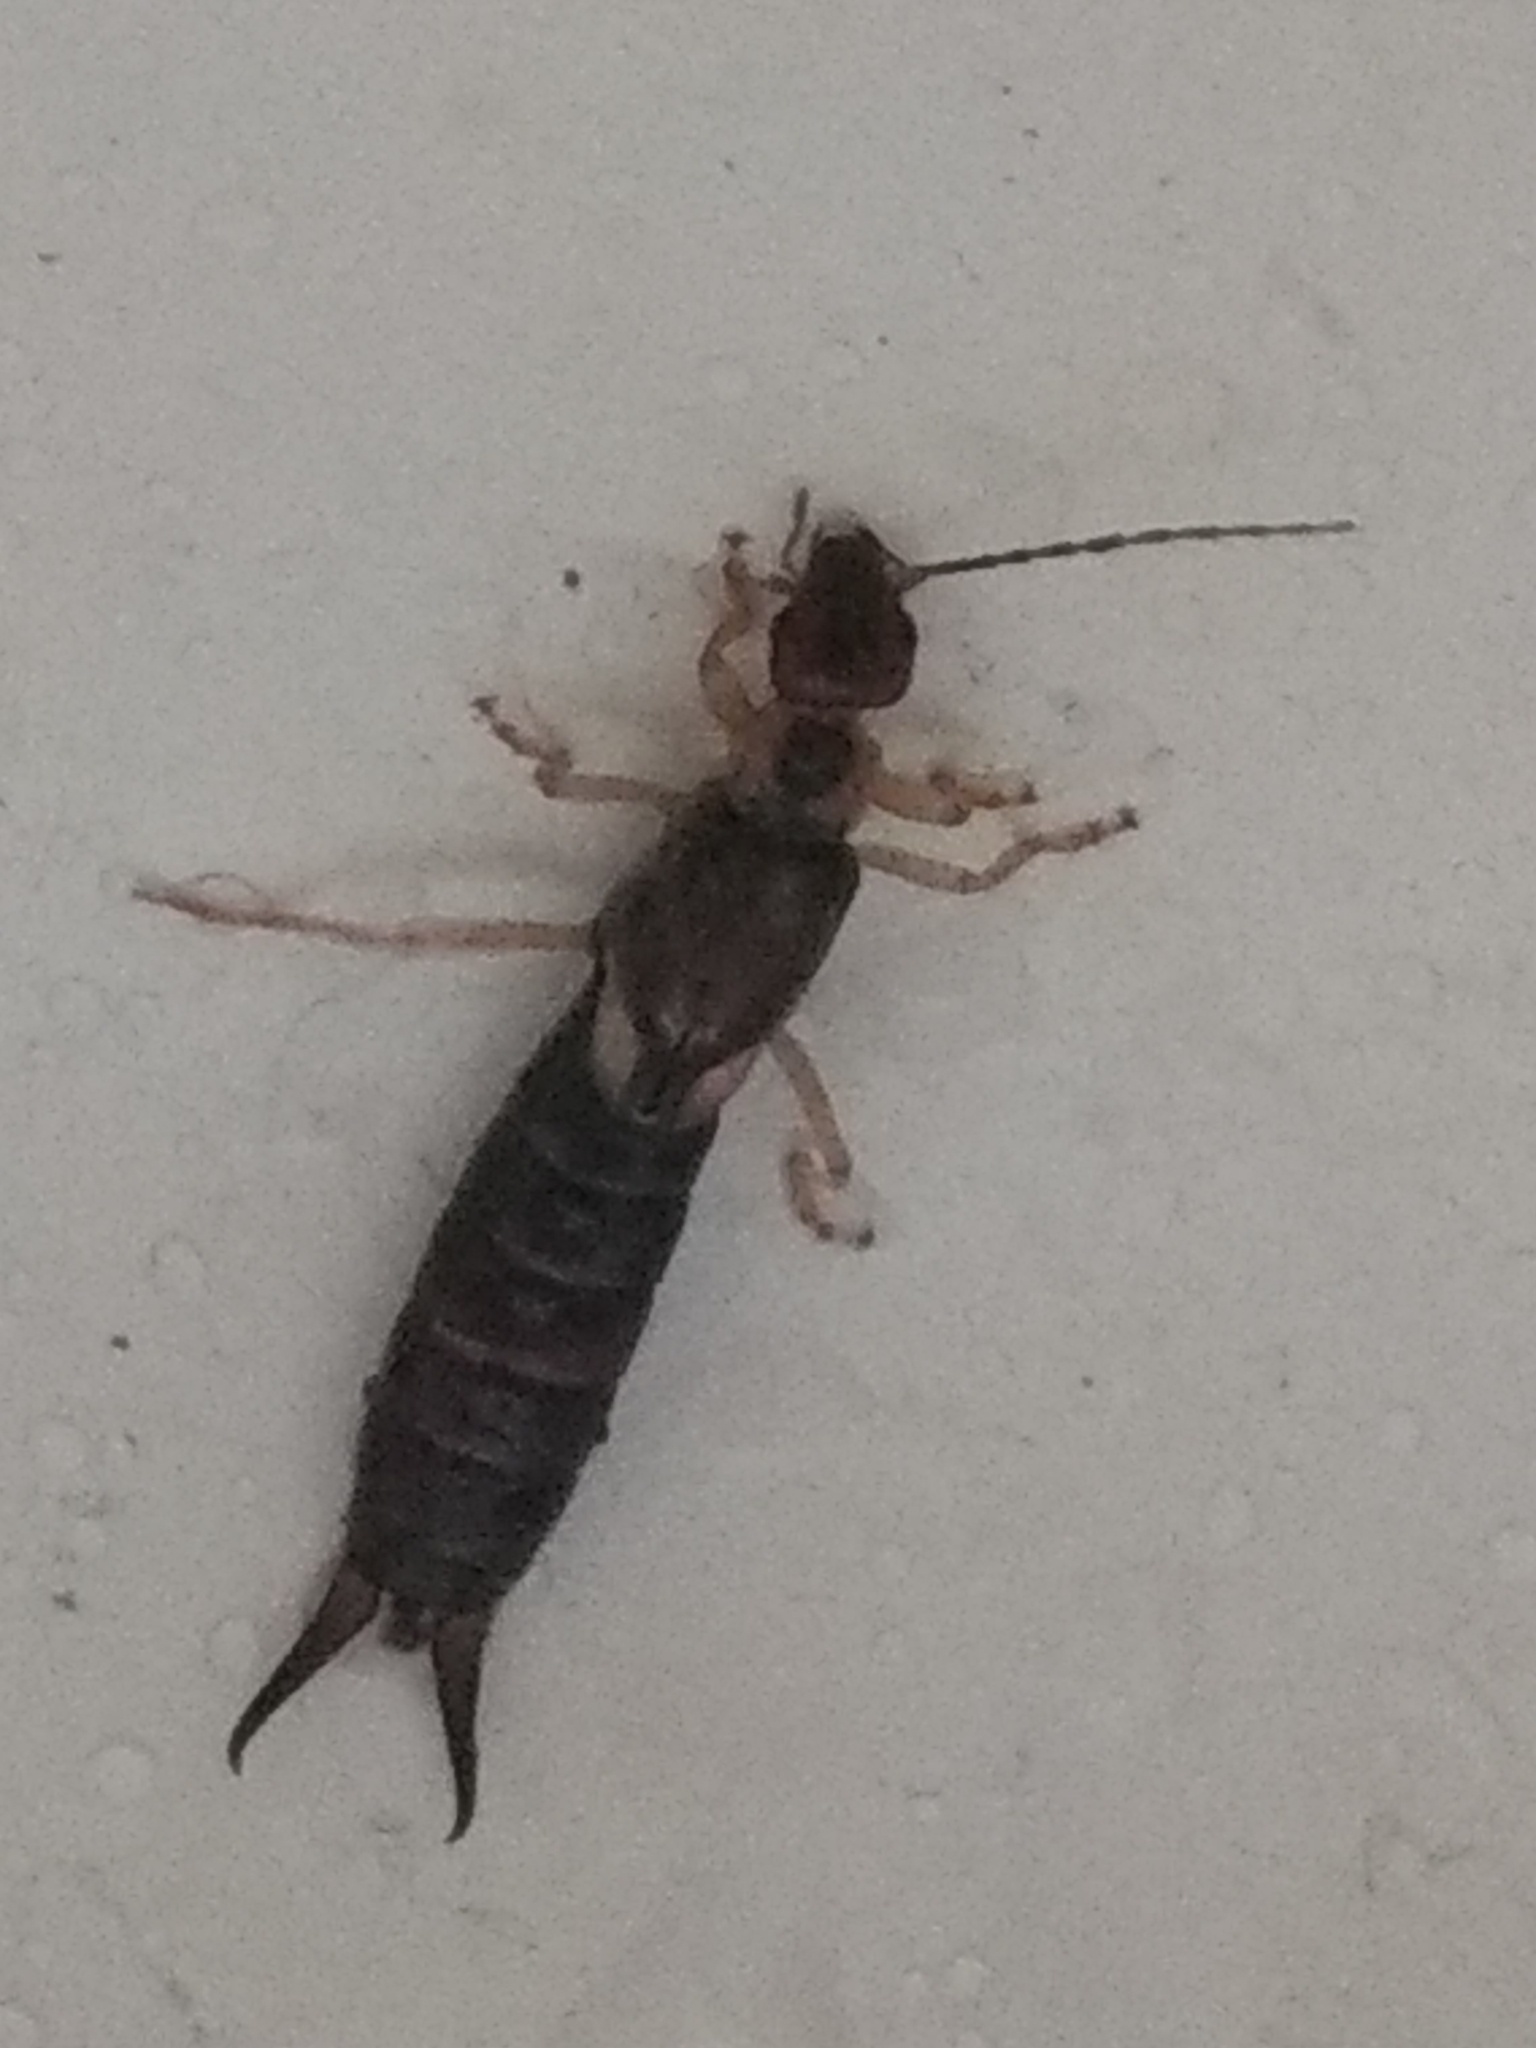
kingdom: Animalia
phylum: Arthropoda
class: Insecta
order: Dermaptera
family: Forficulidae
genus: Forficula
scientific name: Forficula
